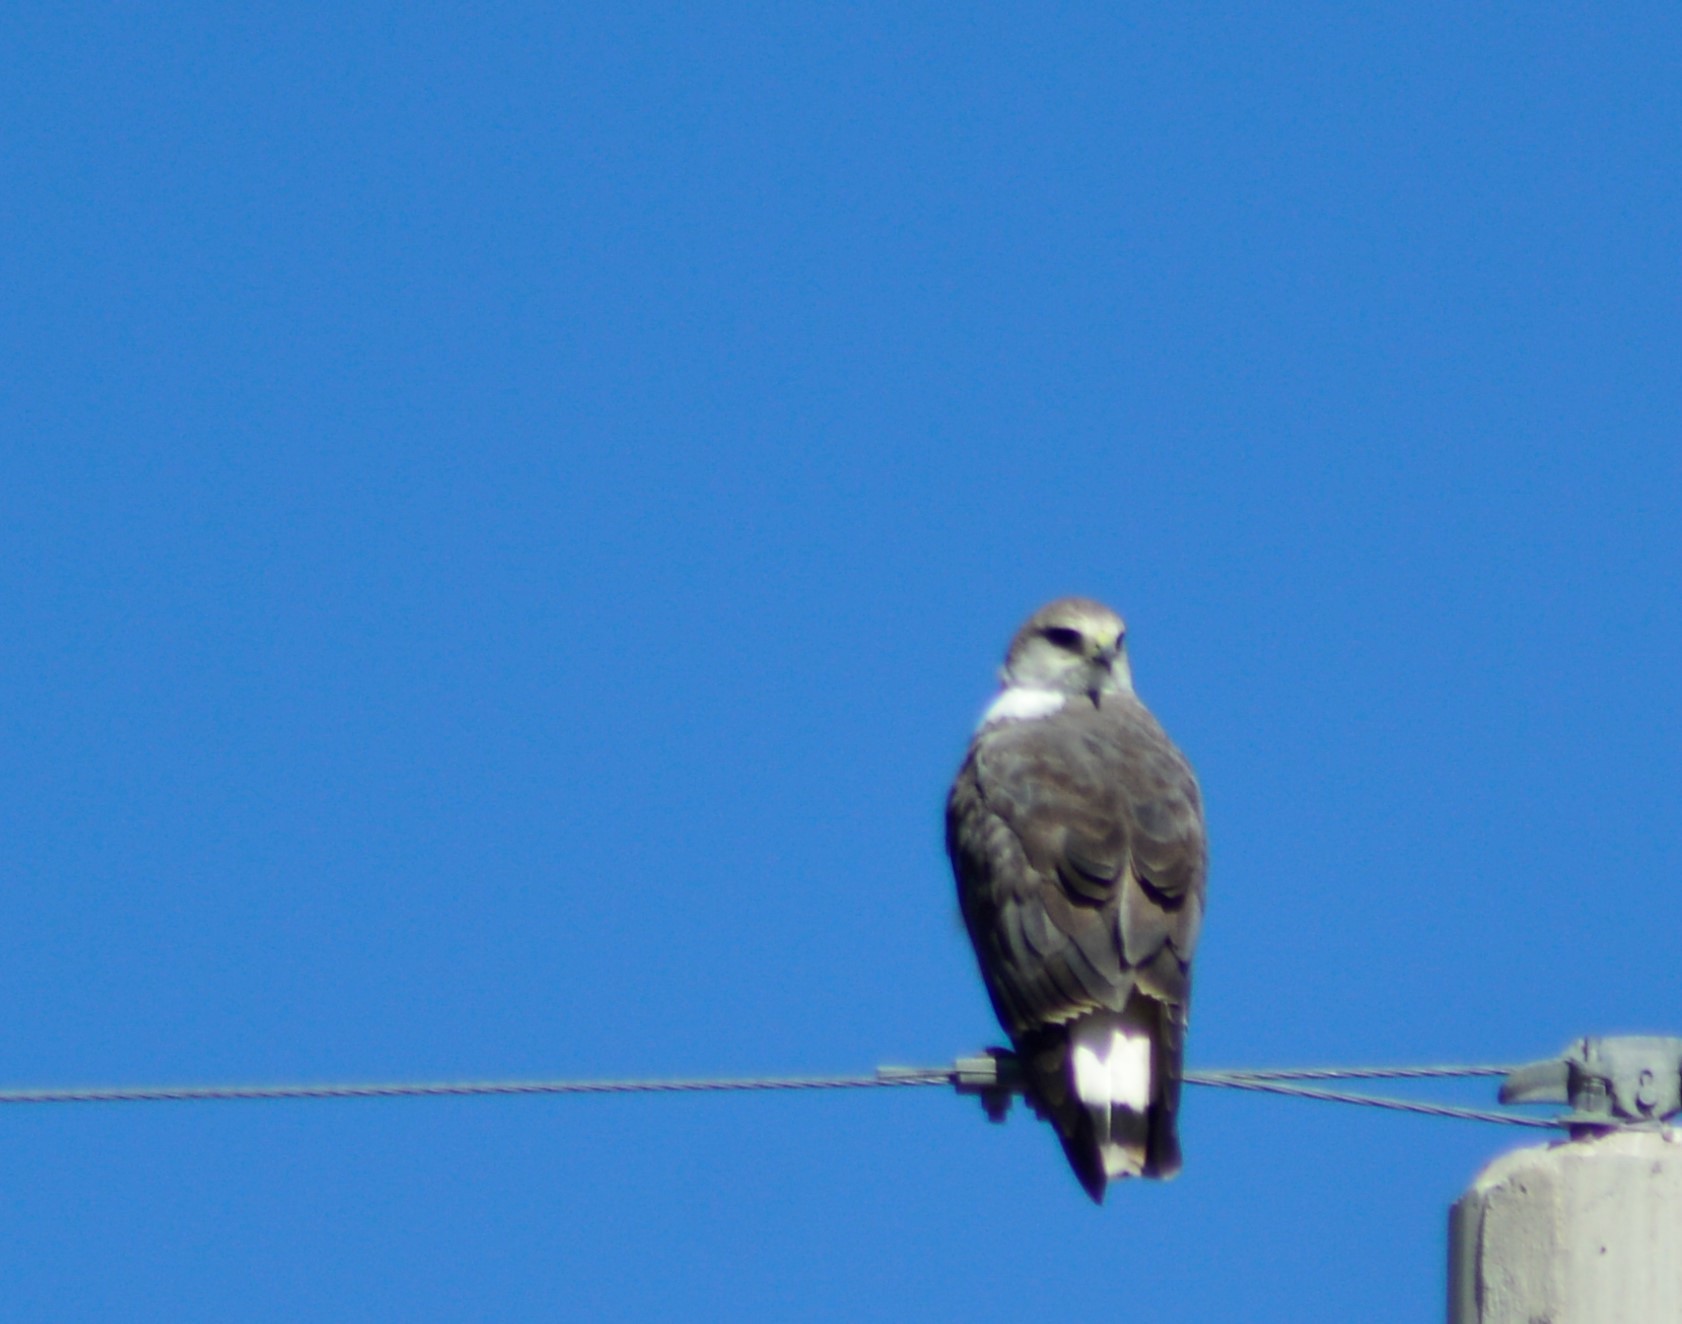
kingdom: Animalia
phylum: Chordata
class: Aves
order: Accipitriformes
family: Accipitridae
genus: Buteo
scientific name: Buteo polyosoma
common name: Variable hawk
